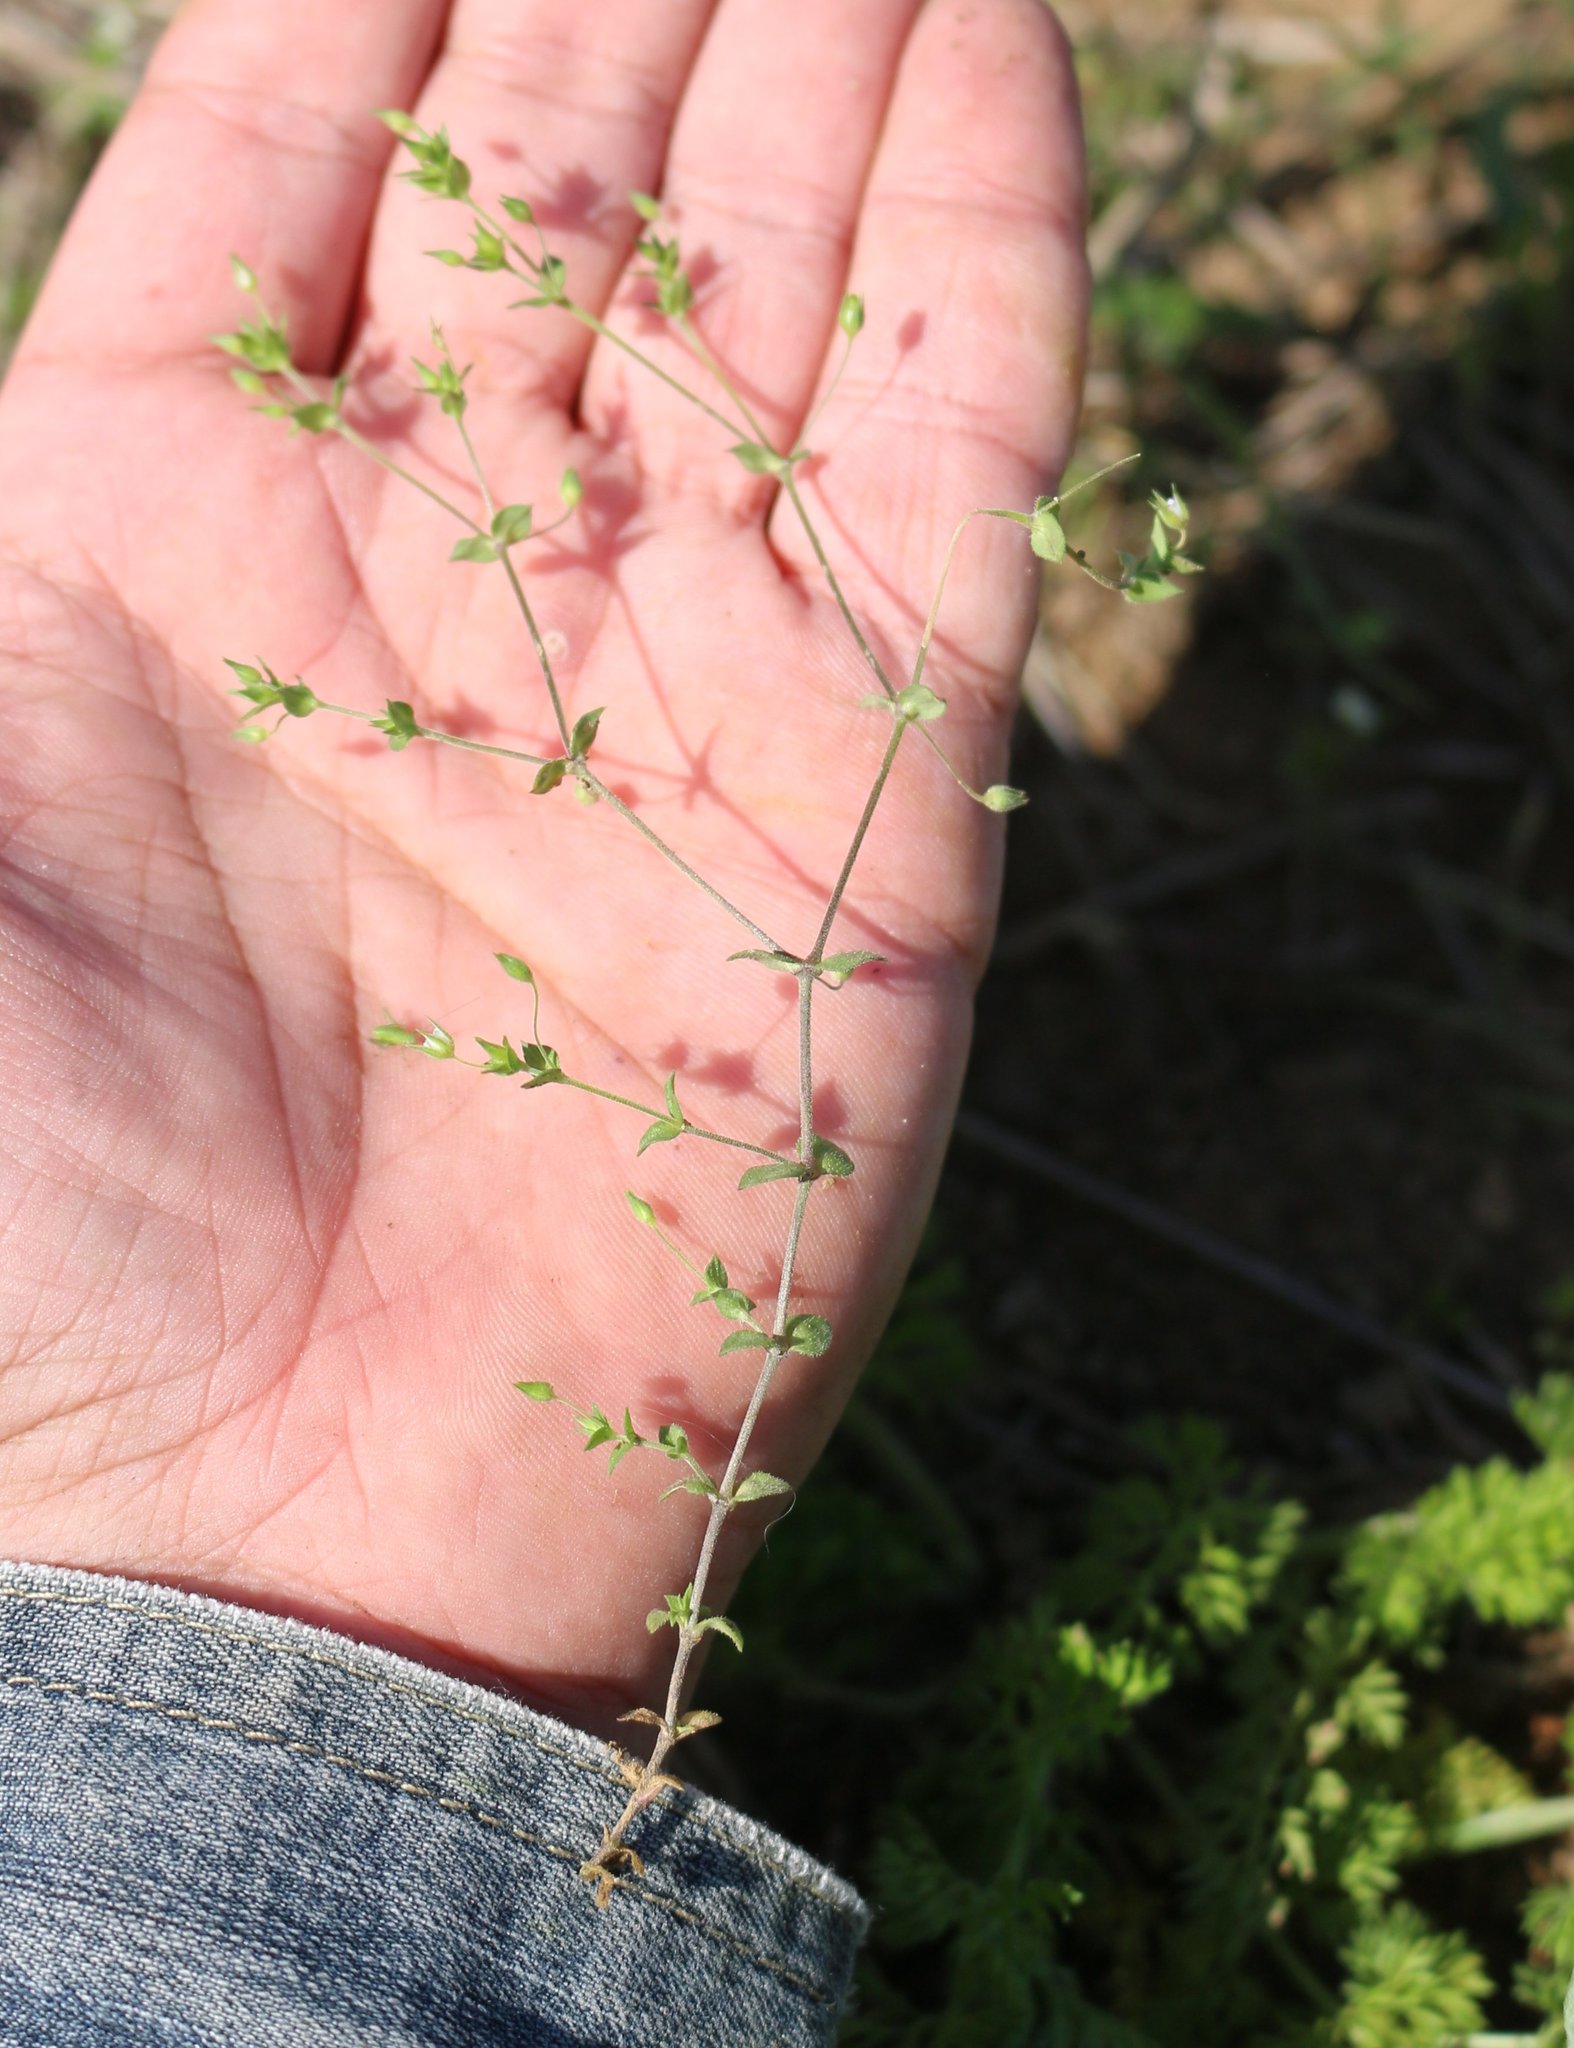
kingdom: Plantae
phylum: Tracheophyta
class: Magnoliopsida
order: Caryophyllales
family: Caryophyllaceae
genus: Arenaria
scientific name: Arenaria serpyllifolia
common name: Thyme-leaved sandwort
